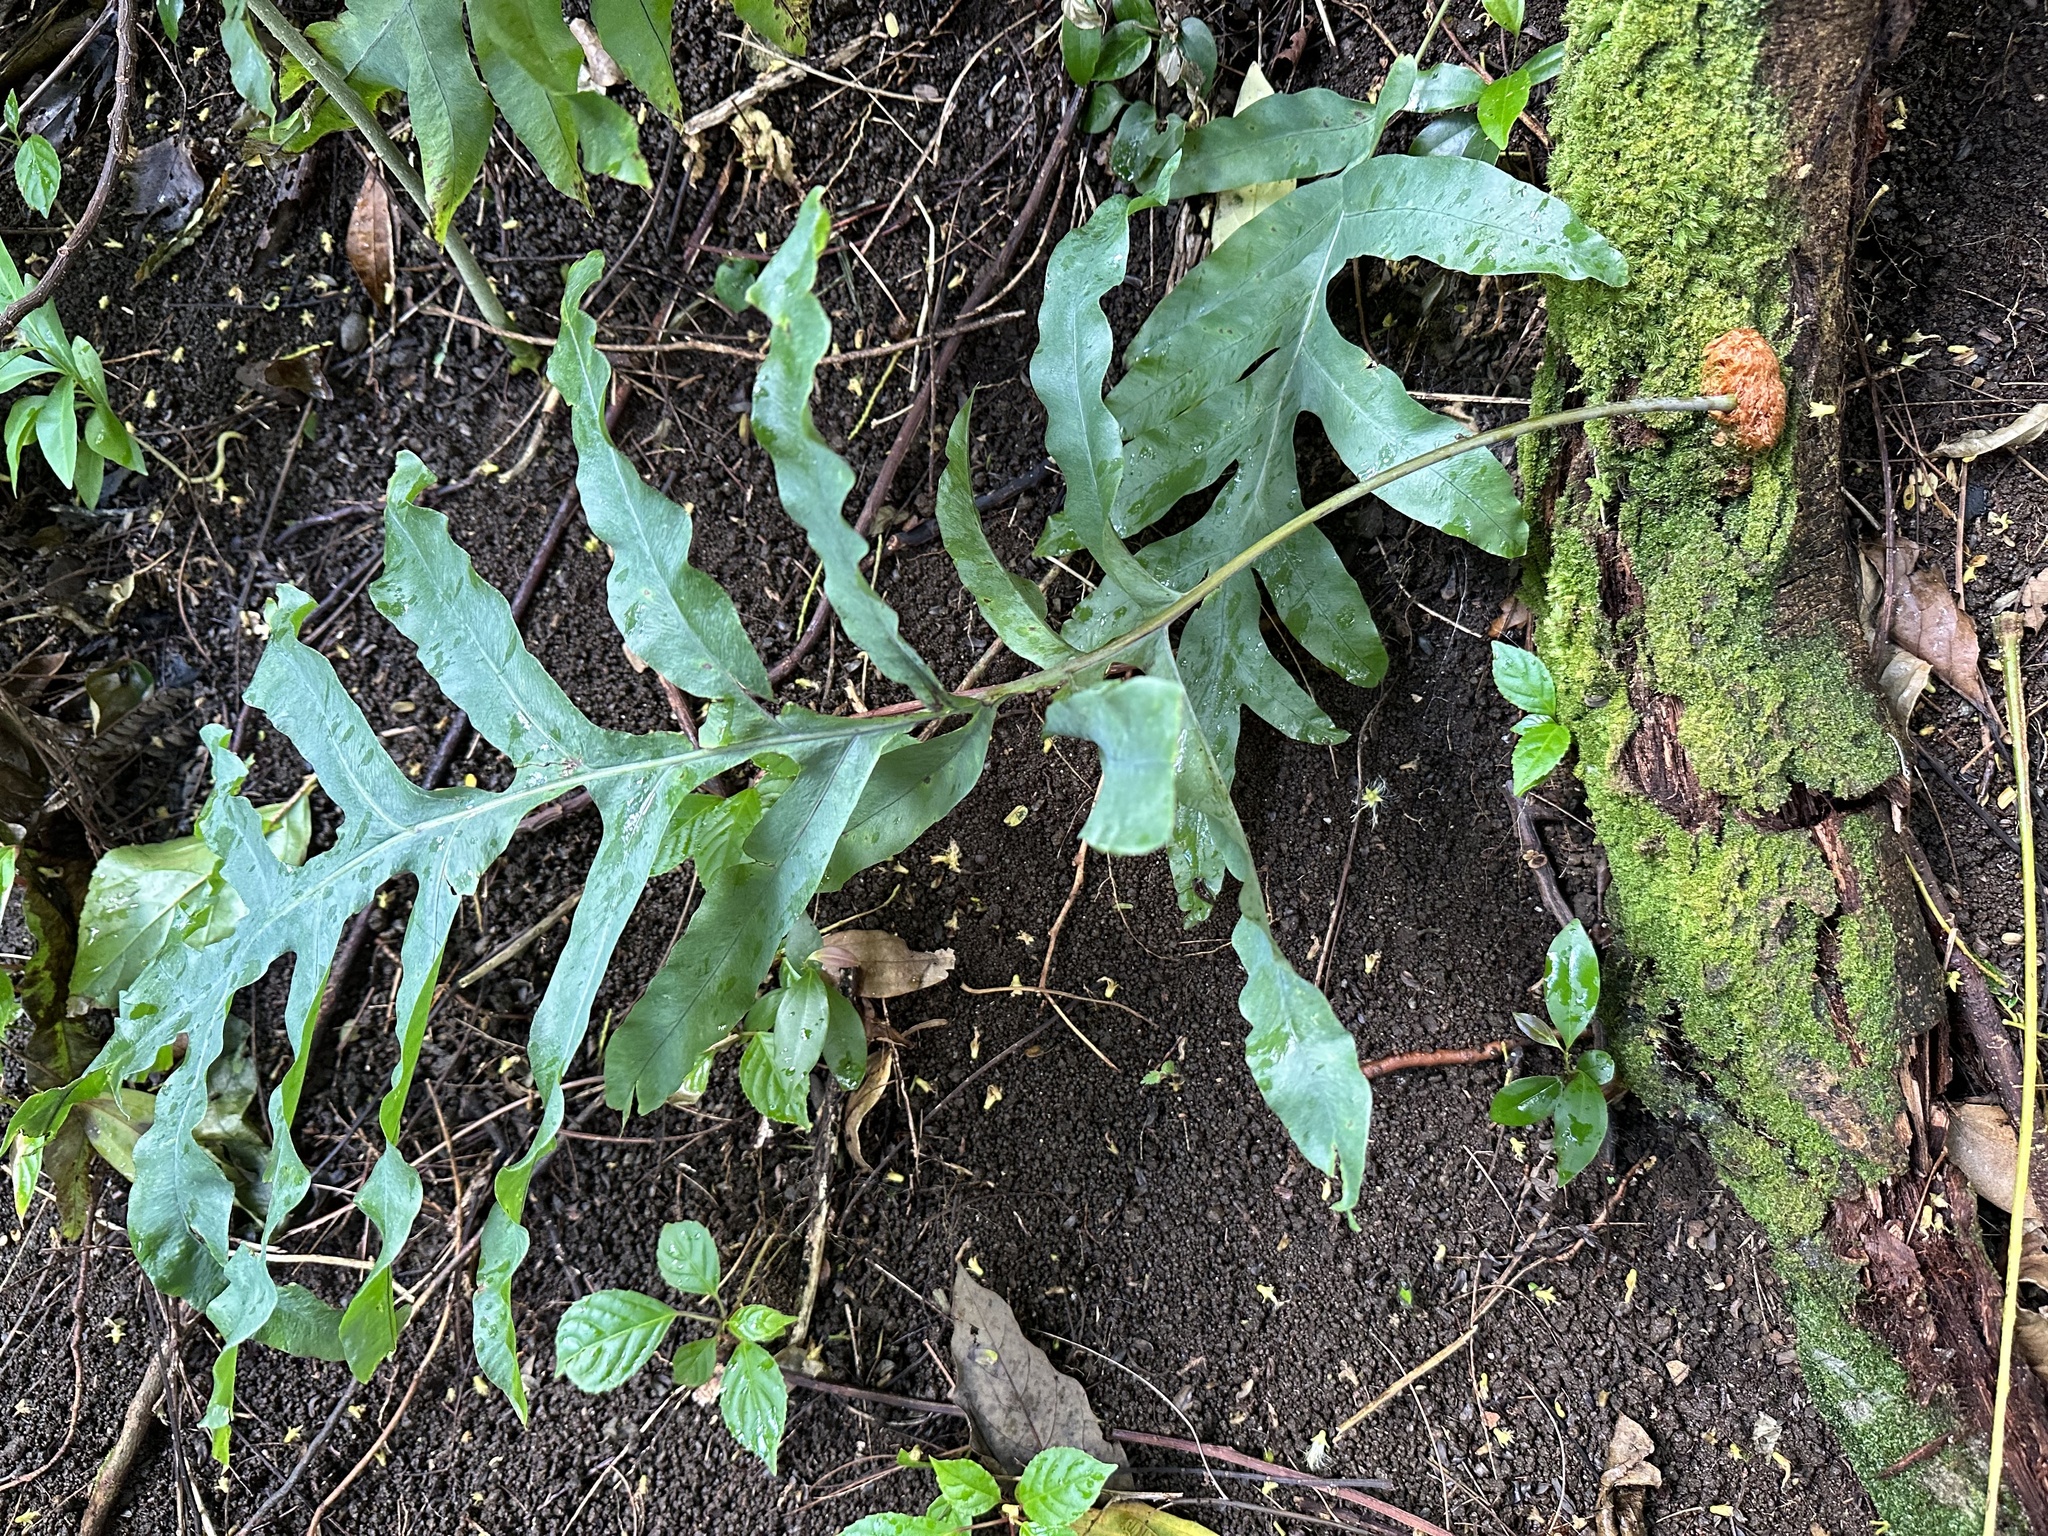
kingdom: Plantae
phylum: Tracheophyta
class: Polypodiopsida
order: Polypodiales
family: Polypodiaceae
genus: Phlebodium
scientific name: Phlebodium aureum
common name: Gold-foot fern
